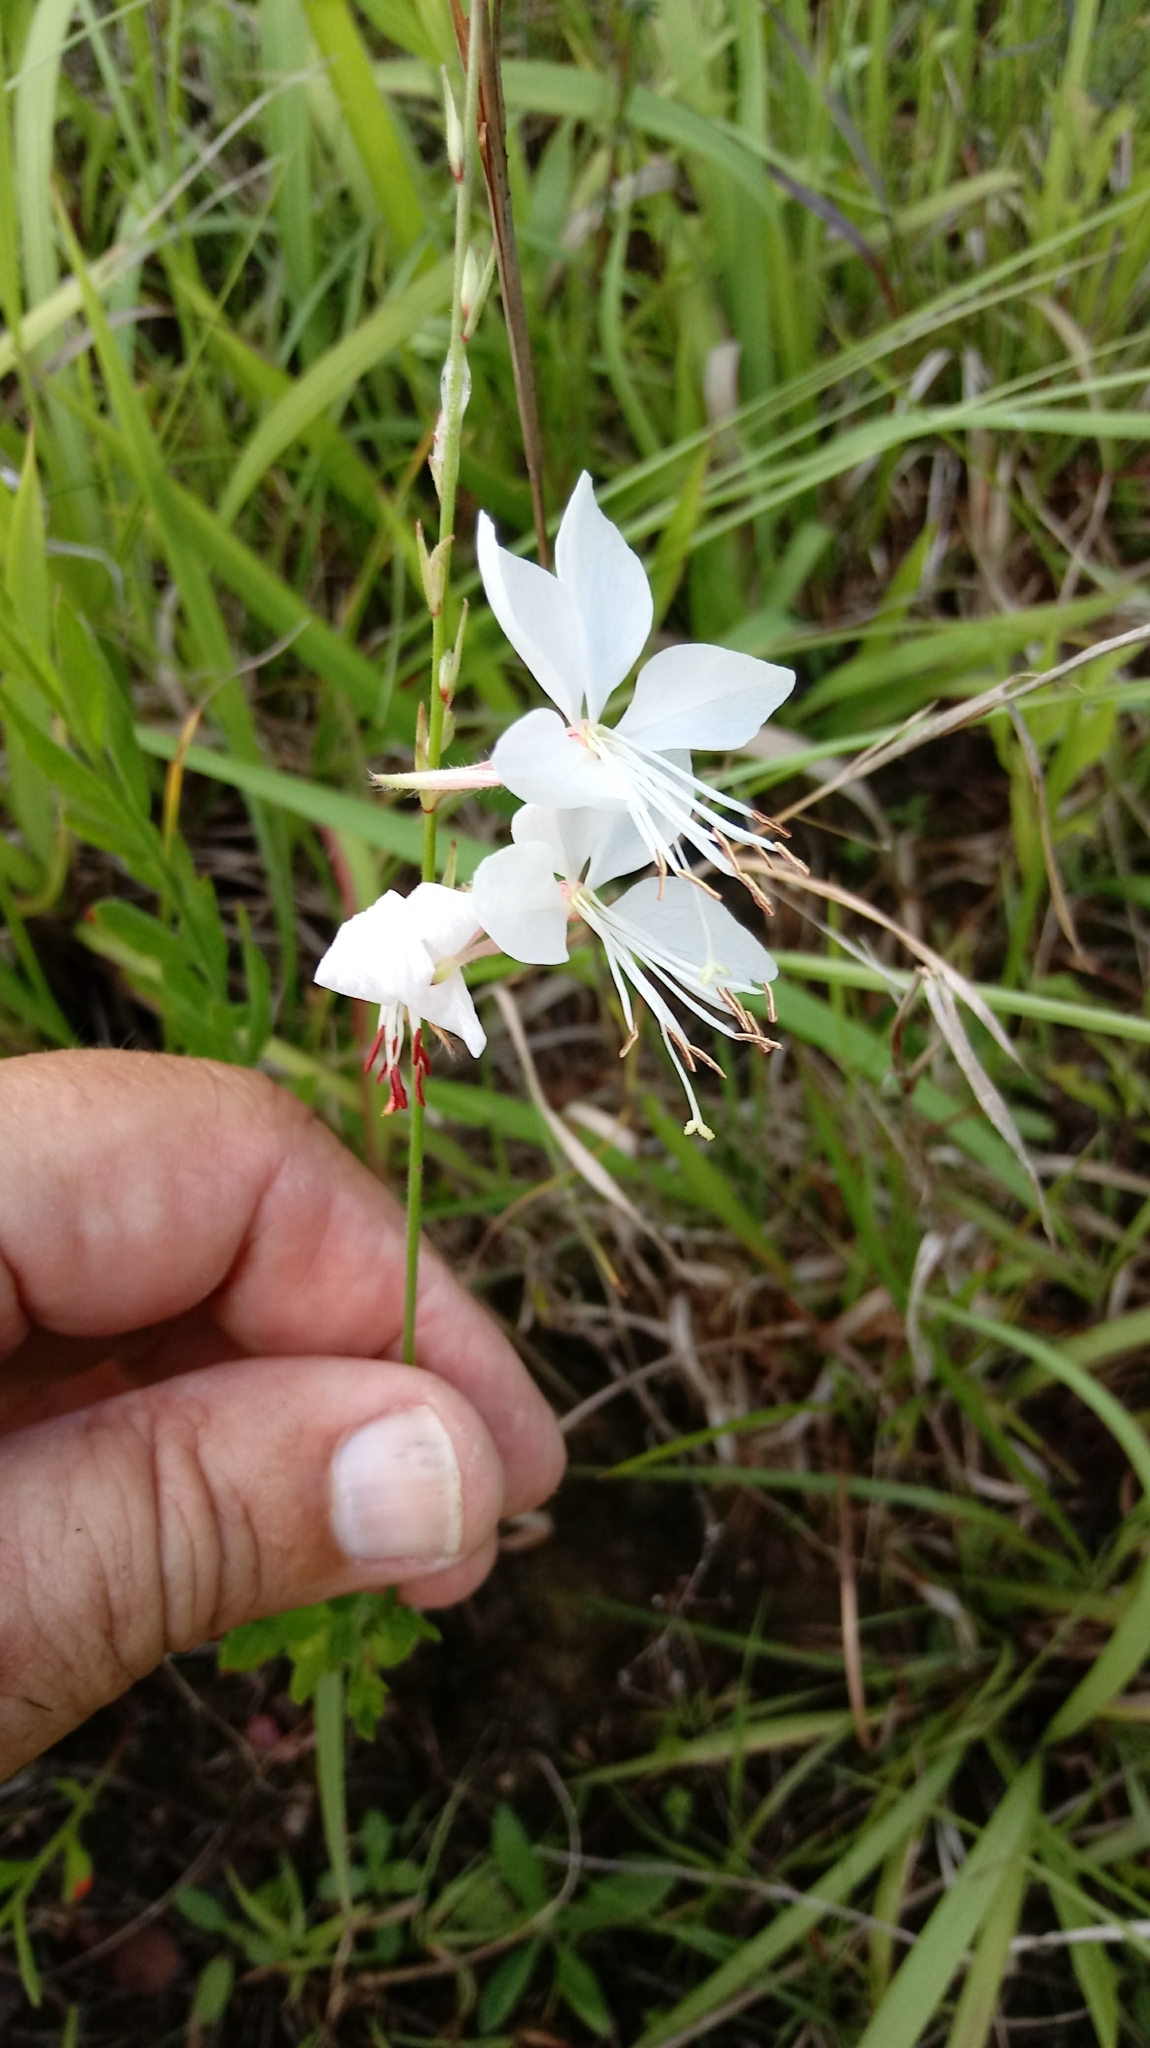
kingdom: Plantae
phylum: Tracheophyta
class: Magnoliopsida
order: Myrtales
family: Onagraceae
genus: Oenothera
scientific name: Oenothera lindheimeri
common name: Lindheimer's beeblossom
